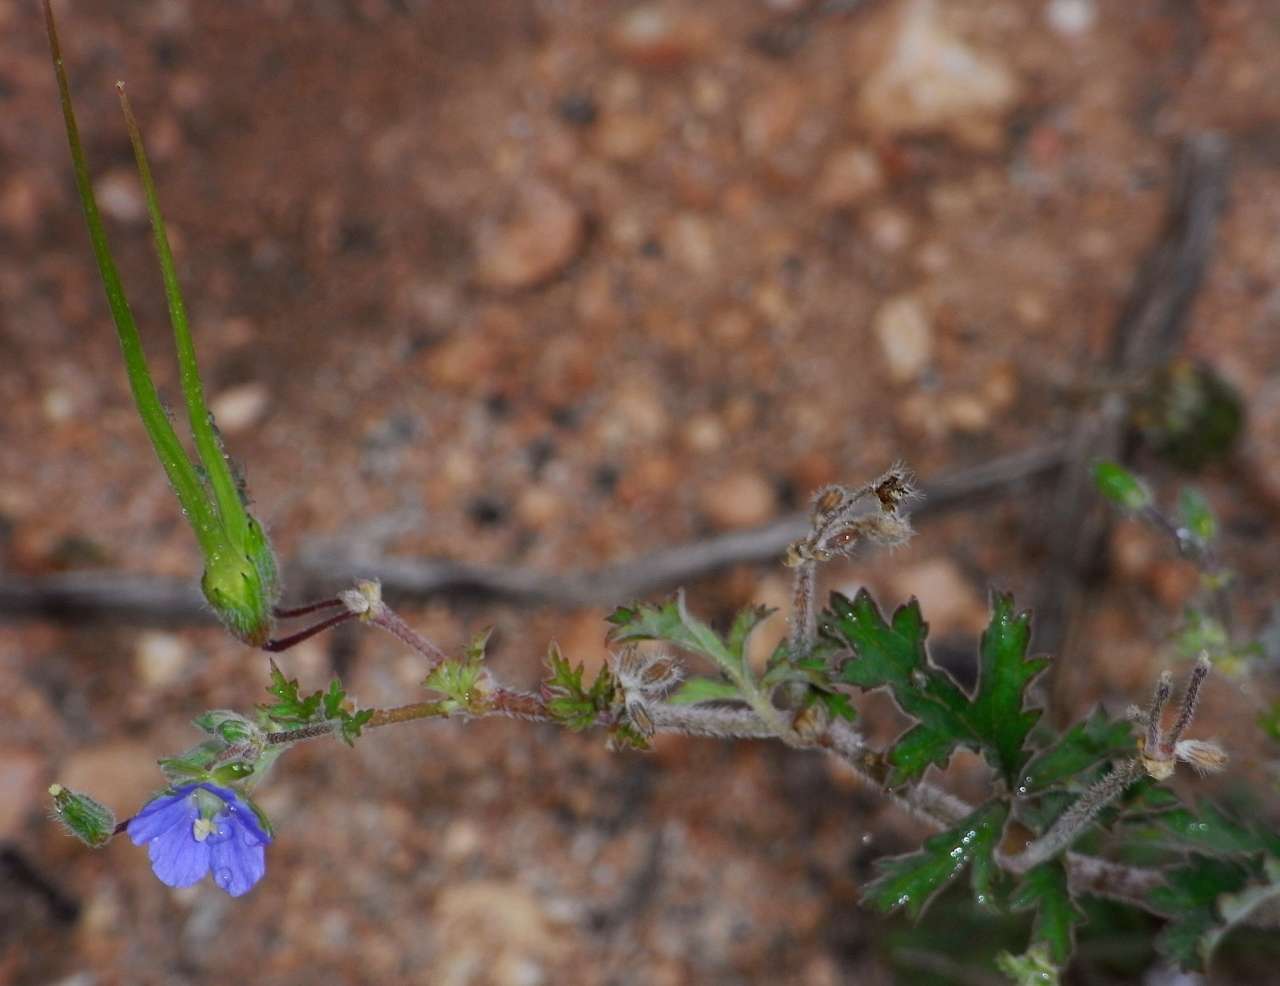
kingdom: Plantae
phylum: Tracheophyta
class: Magnoliopsida
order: Geraniales
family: Geraniaceae
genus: Erodium
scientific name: Erodium crinitum
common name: Eastern stork's-bill
